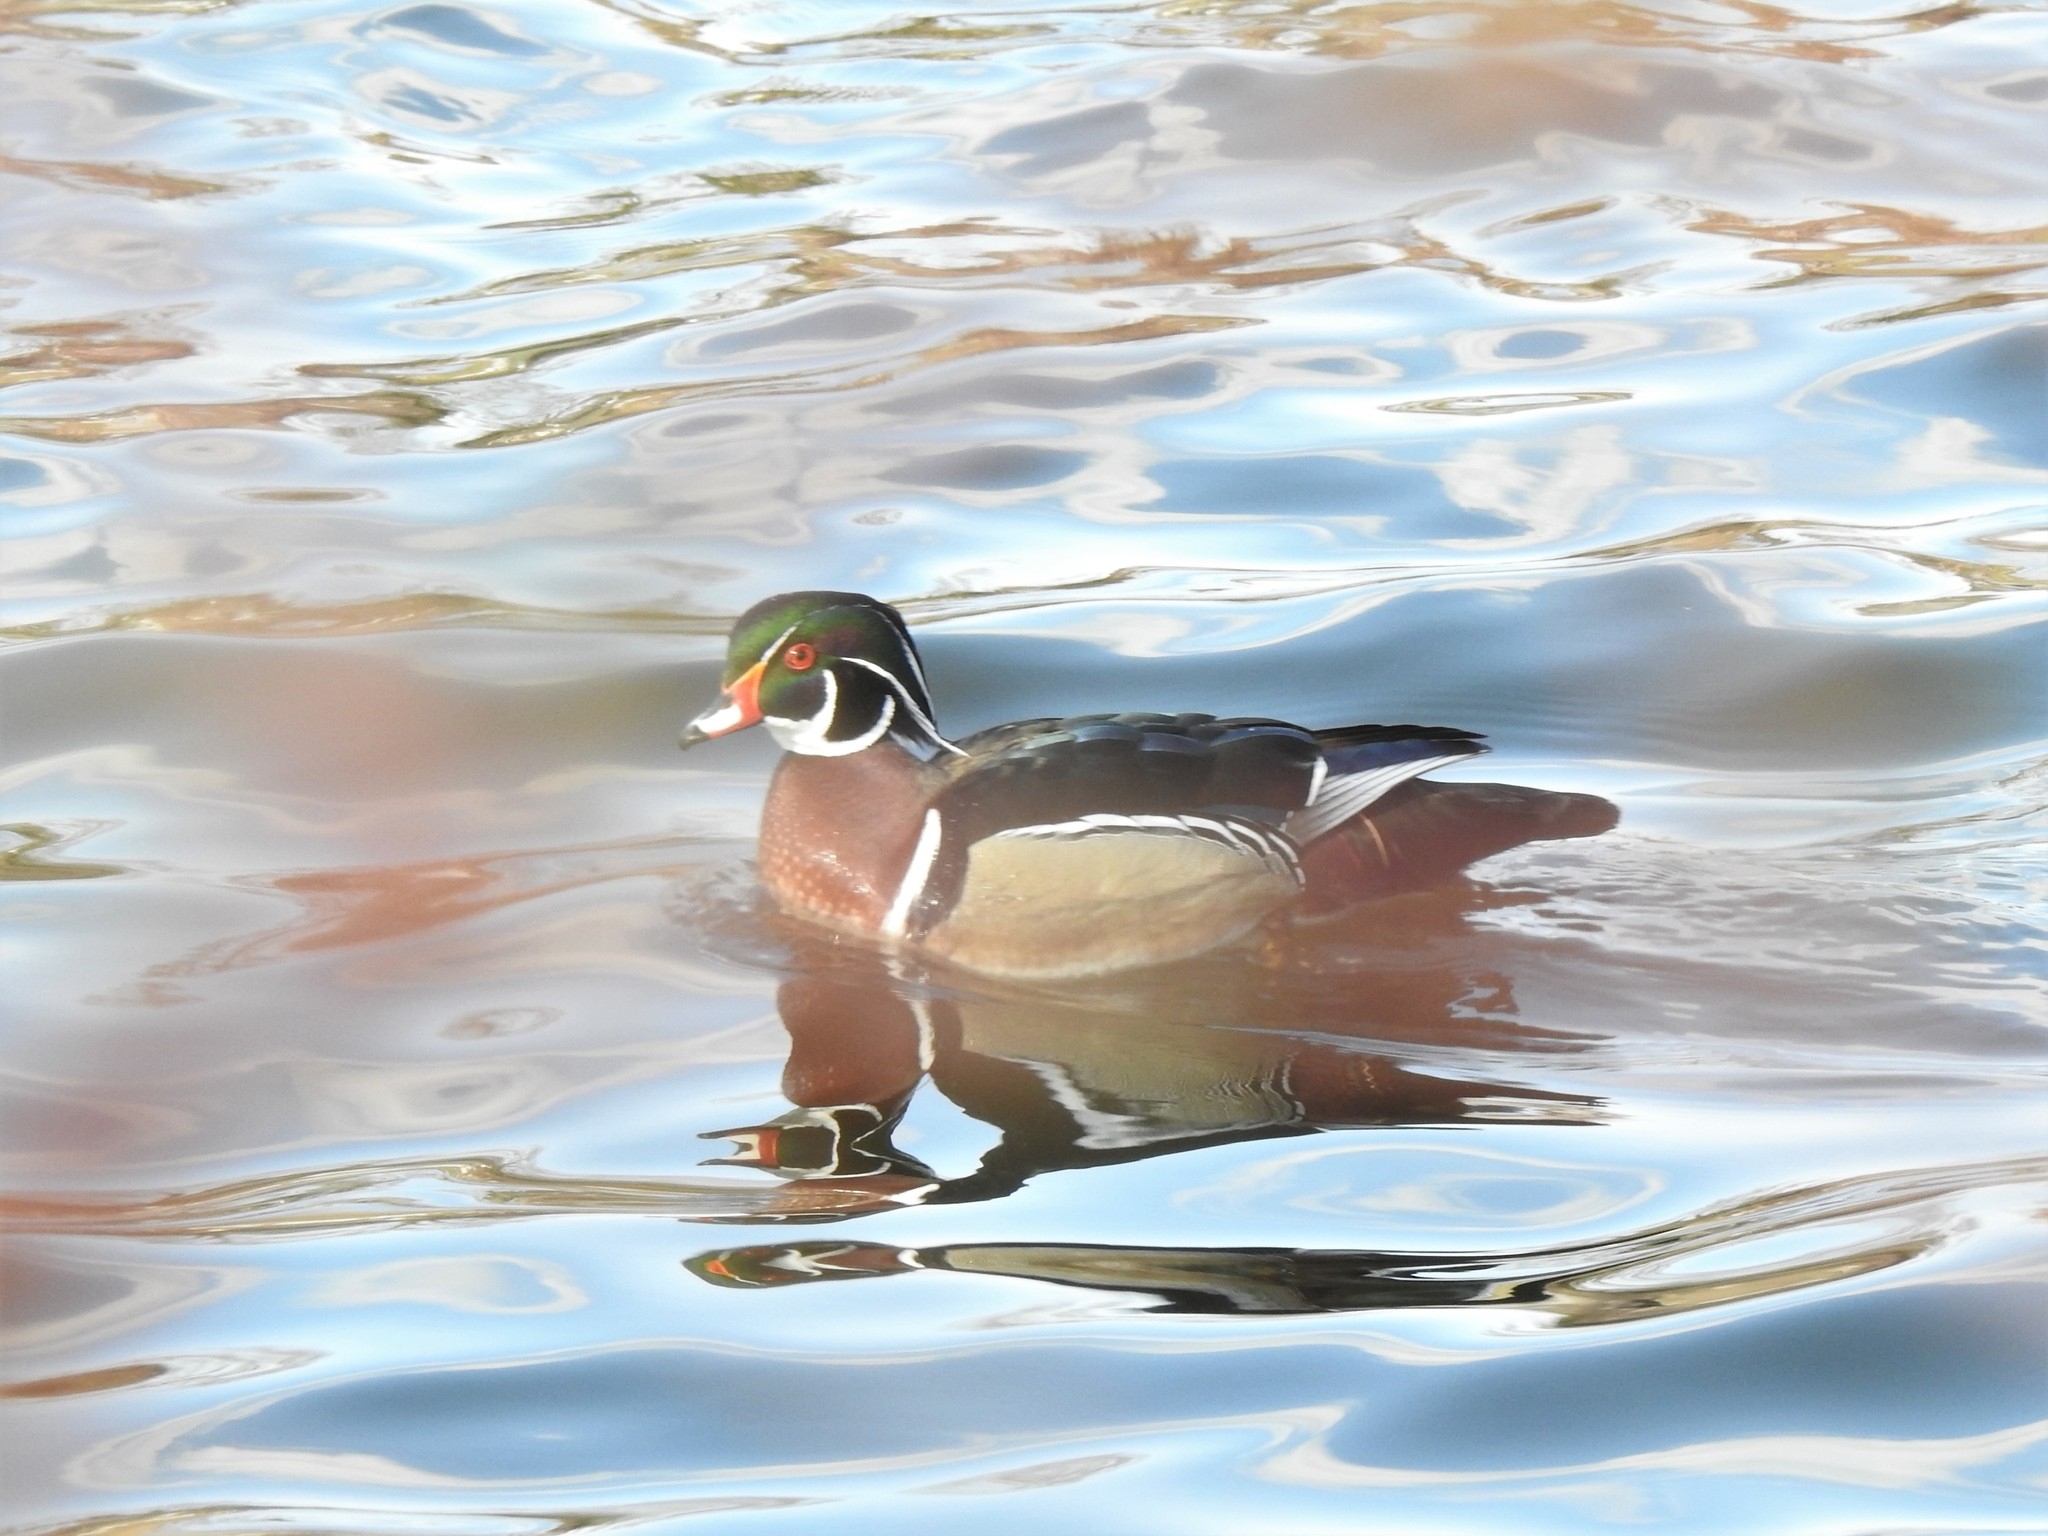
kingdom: Animalia
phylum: Chordata
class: Aves
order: Anseriformes
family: Anatidae
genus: Aix
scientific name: Aix sponsa
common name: Wood duck
